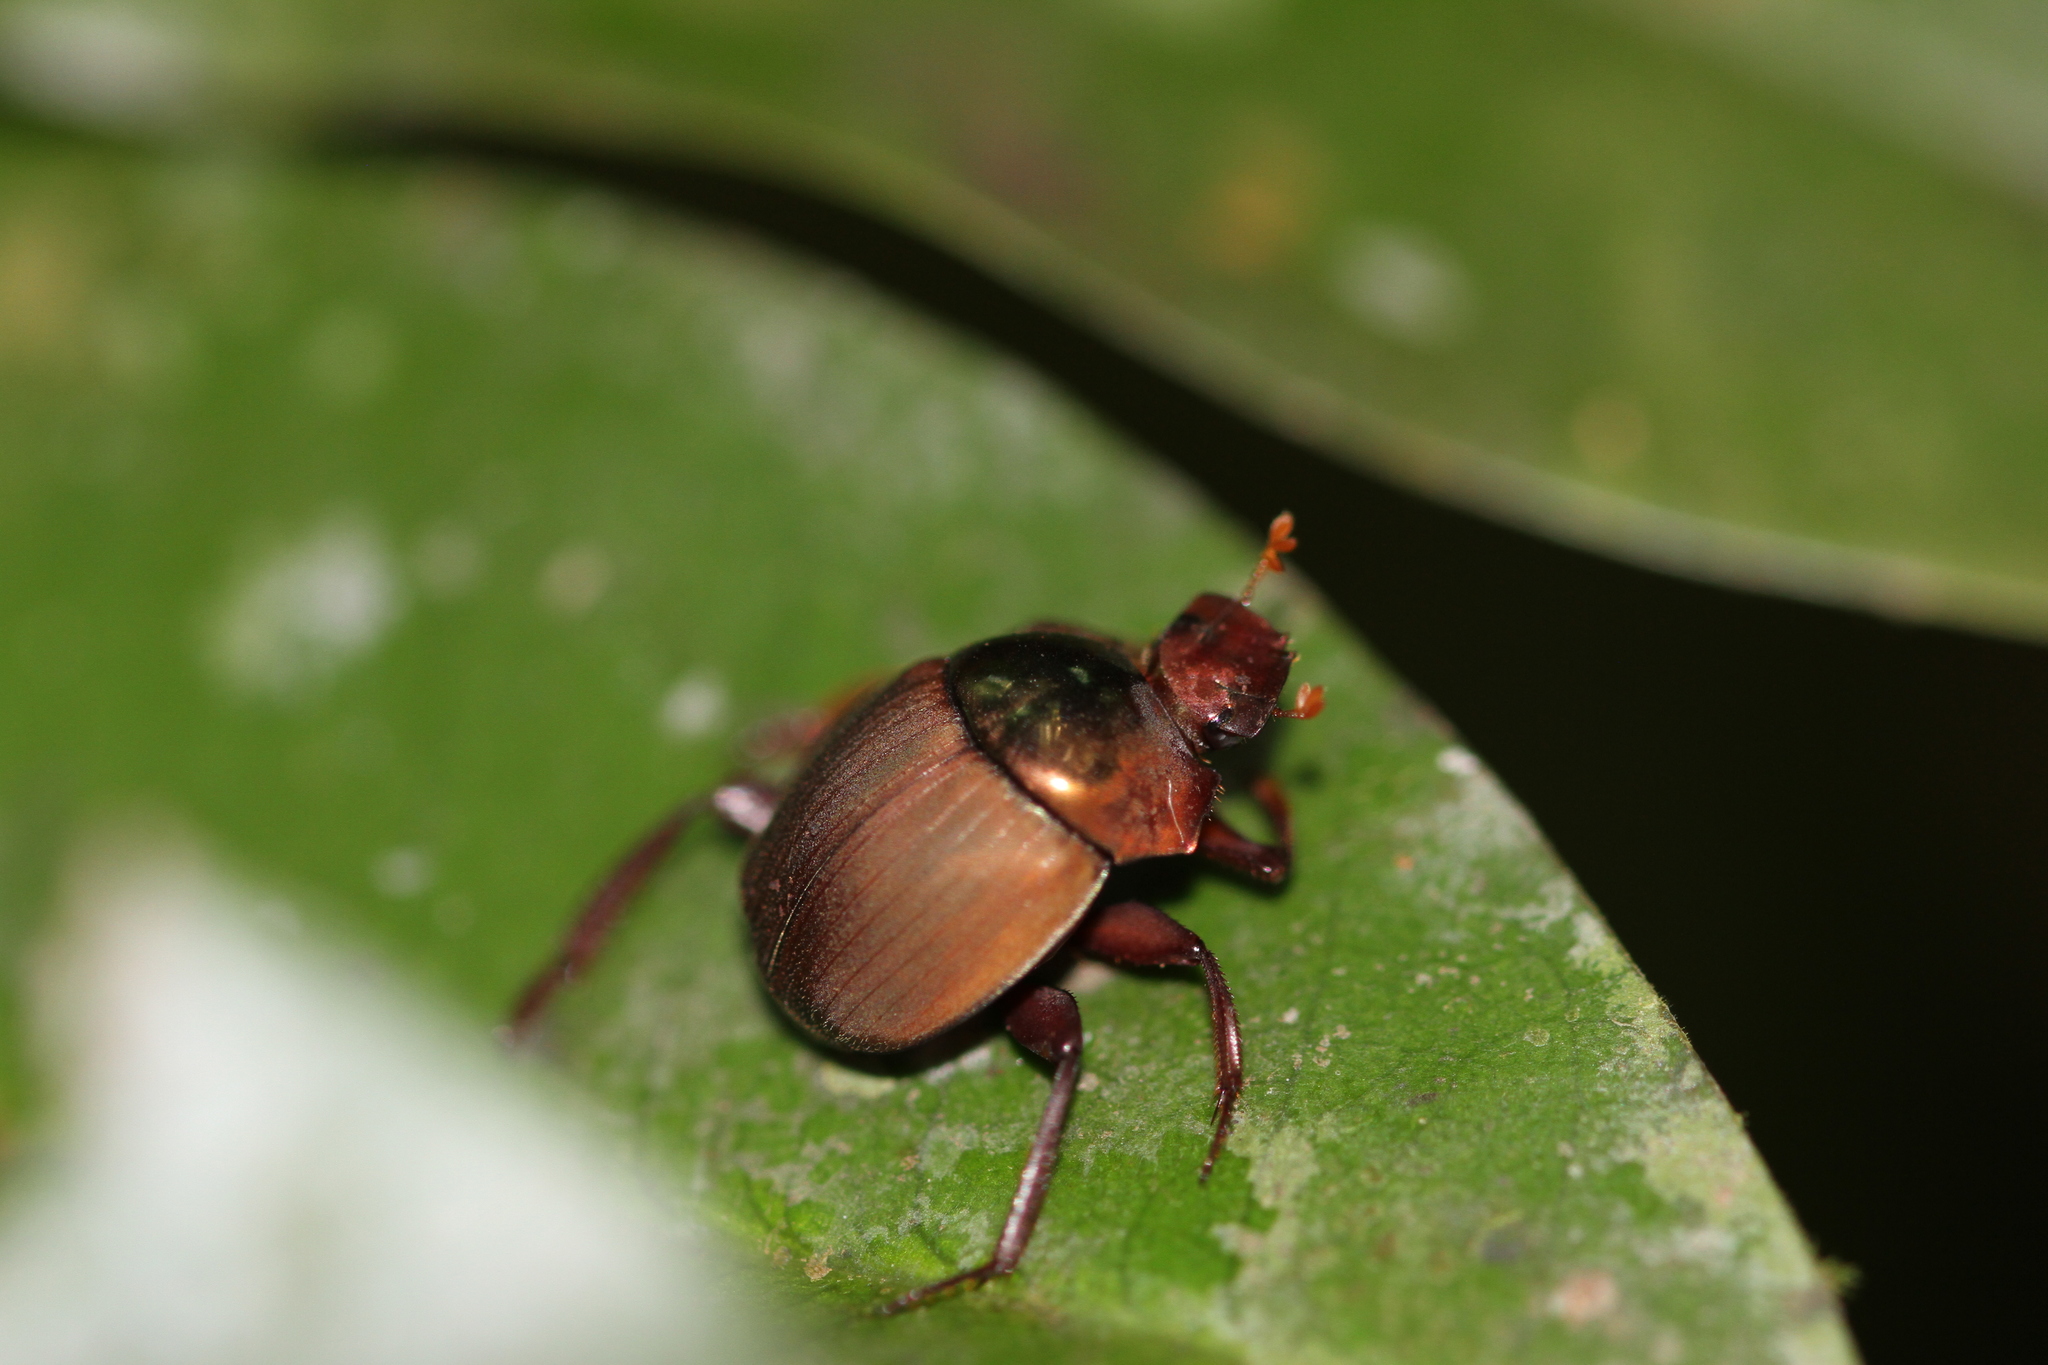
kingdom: Animalia
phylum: Arthropoda
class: Insecta
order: Coleoptera
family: Scarabaeidae
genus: Hansreia
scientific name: Hansreia affinis
